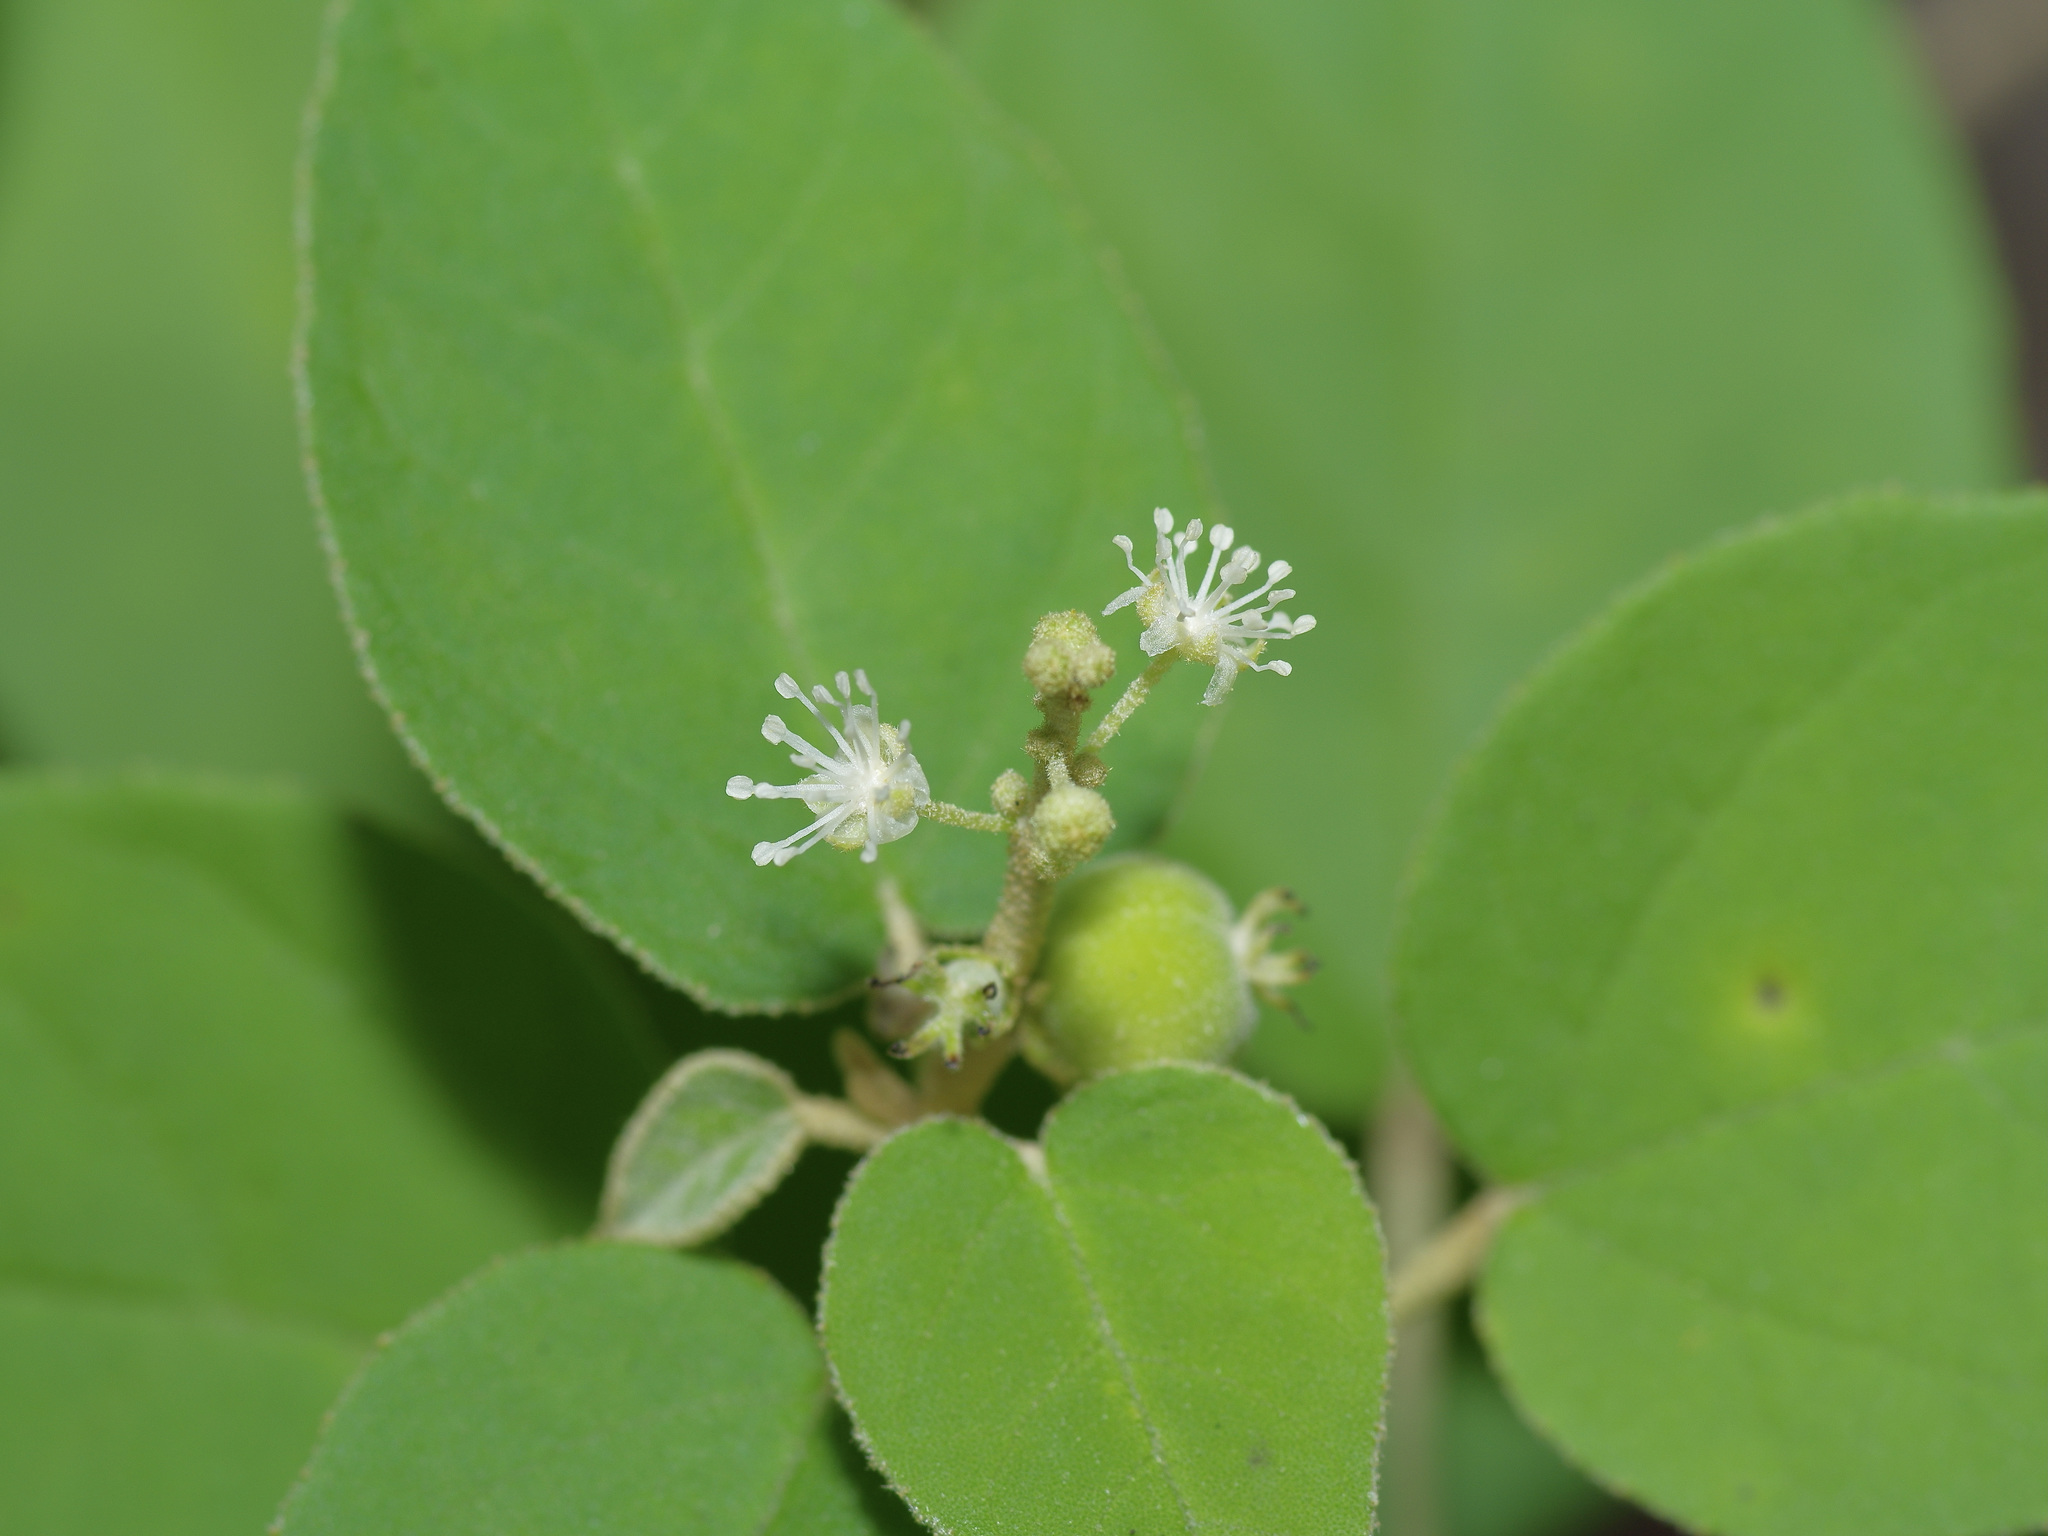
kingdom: Plantae
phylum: Tracheophyta
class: Magnoliopsida
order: Malpighiales
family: Euphorbiaceae
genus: Croton
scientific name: Croton fruticulosus
